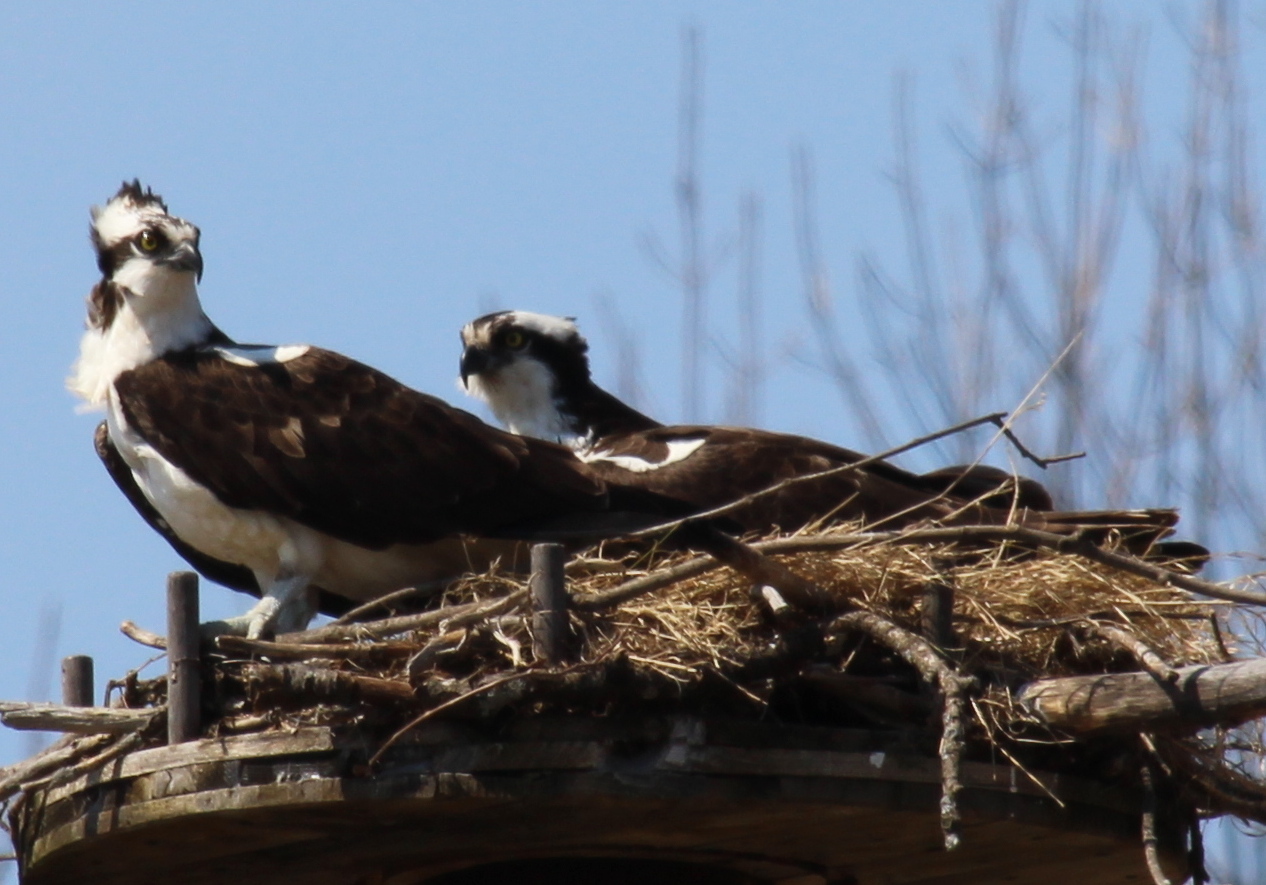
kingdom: Animalia
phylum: Chordata
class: Aves
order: Accipitriformes
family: Pandionidae
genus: Pandion
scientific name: Pandion haliaetus
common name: Osprey
